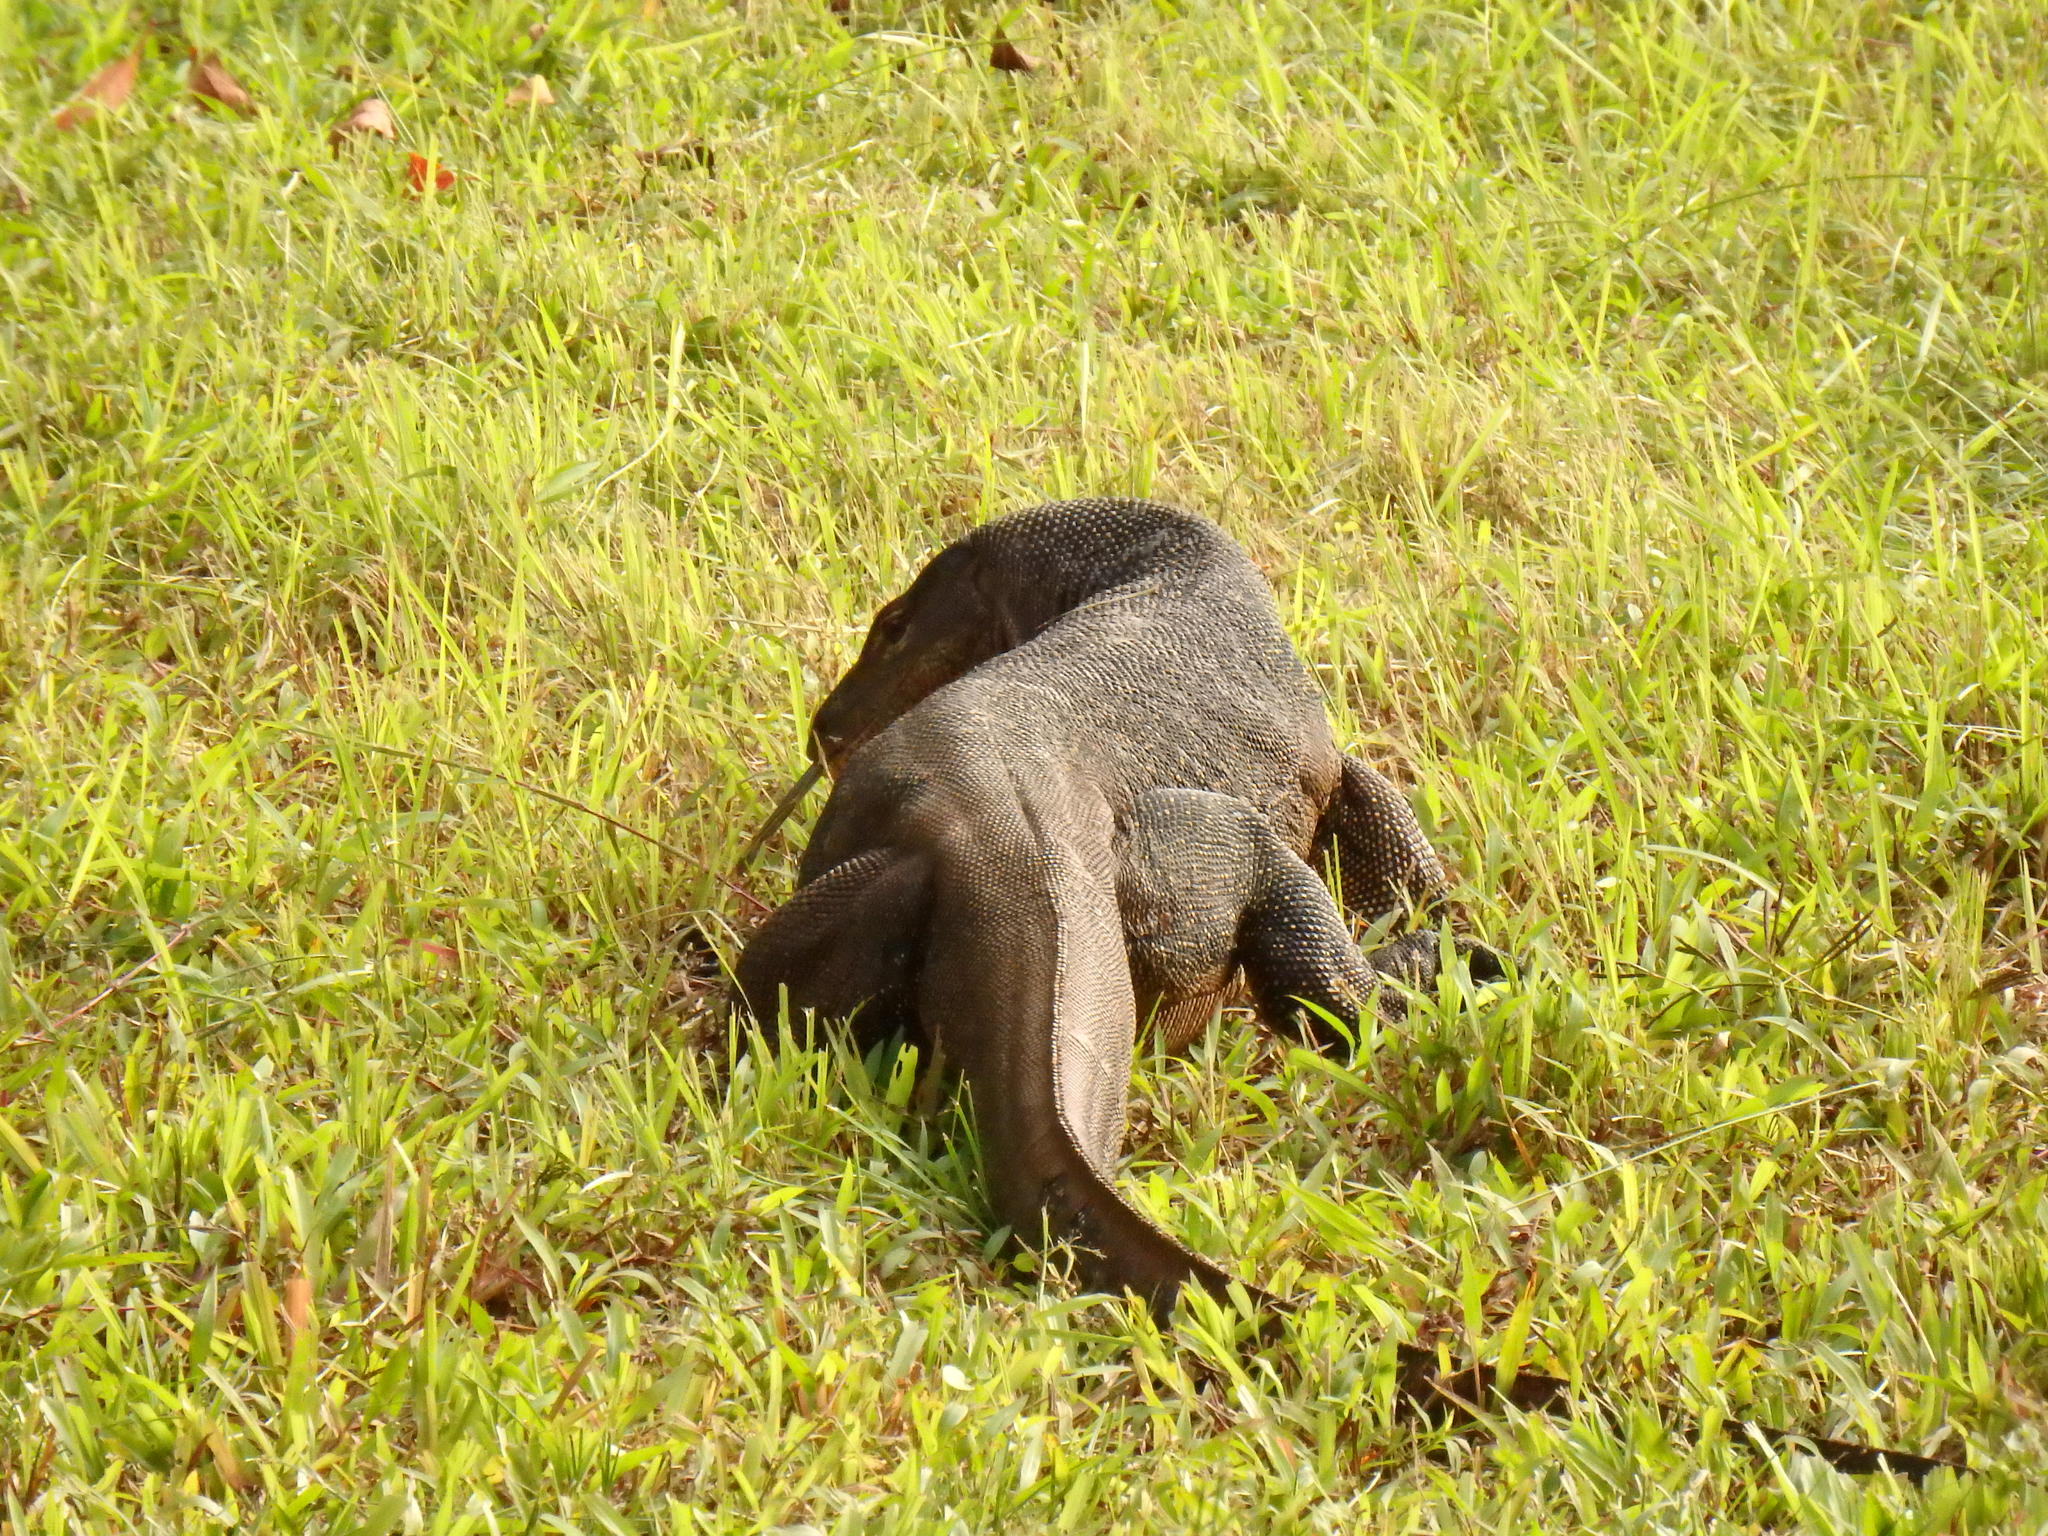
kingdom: Animalia
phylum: Chordata
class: Squamata
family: Varanidae
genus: Varanus
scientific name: Varanus salvator
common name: Common water monitor
